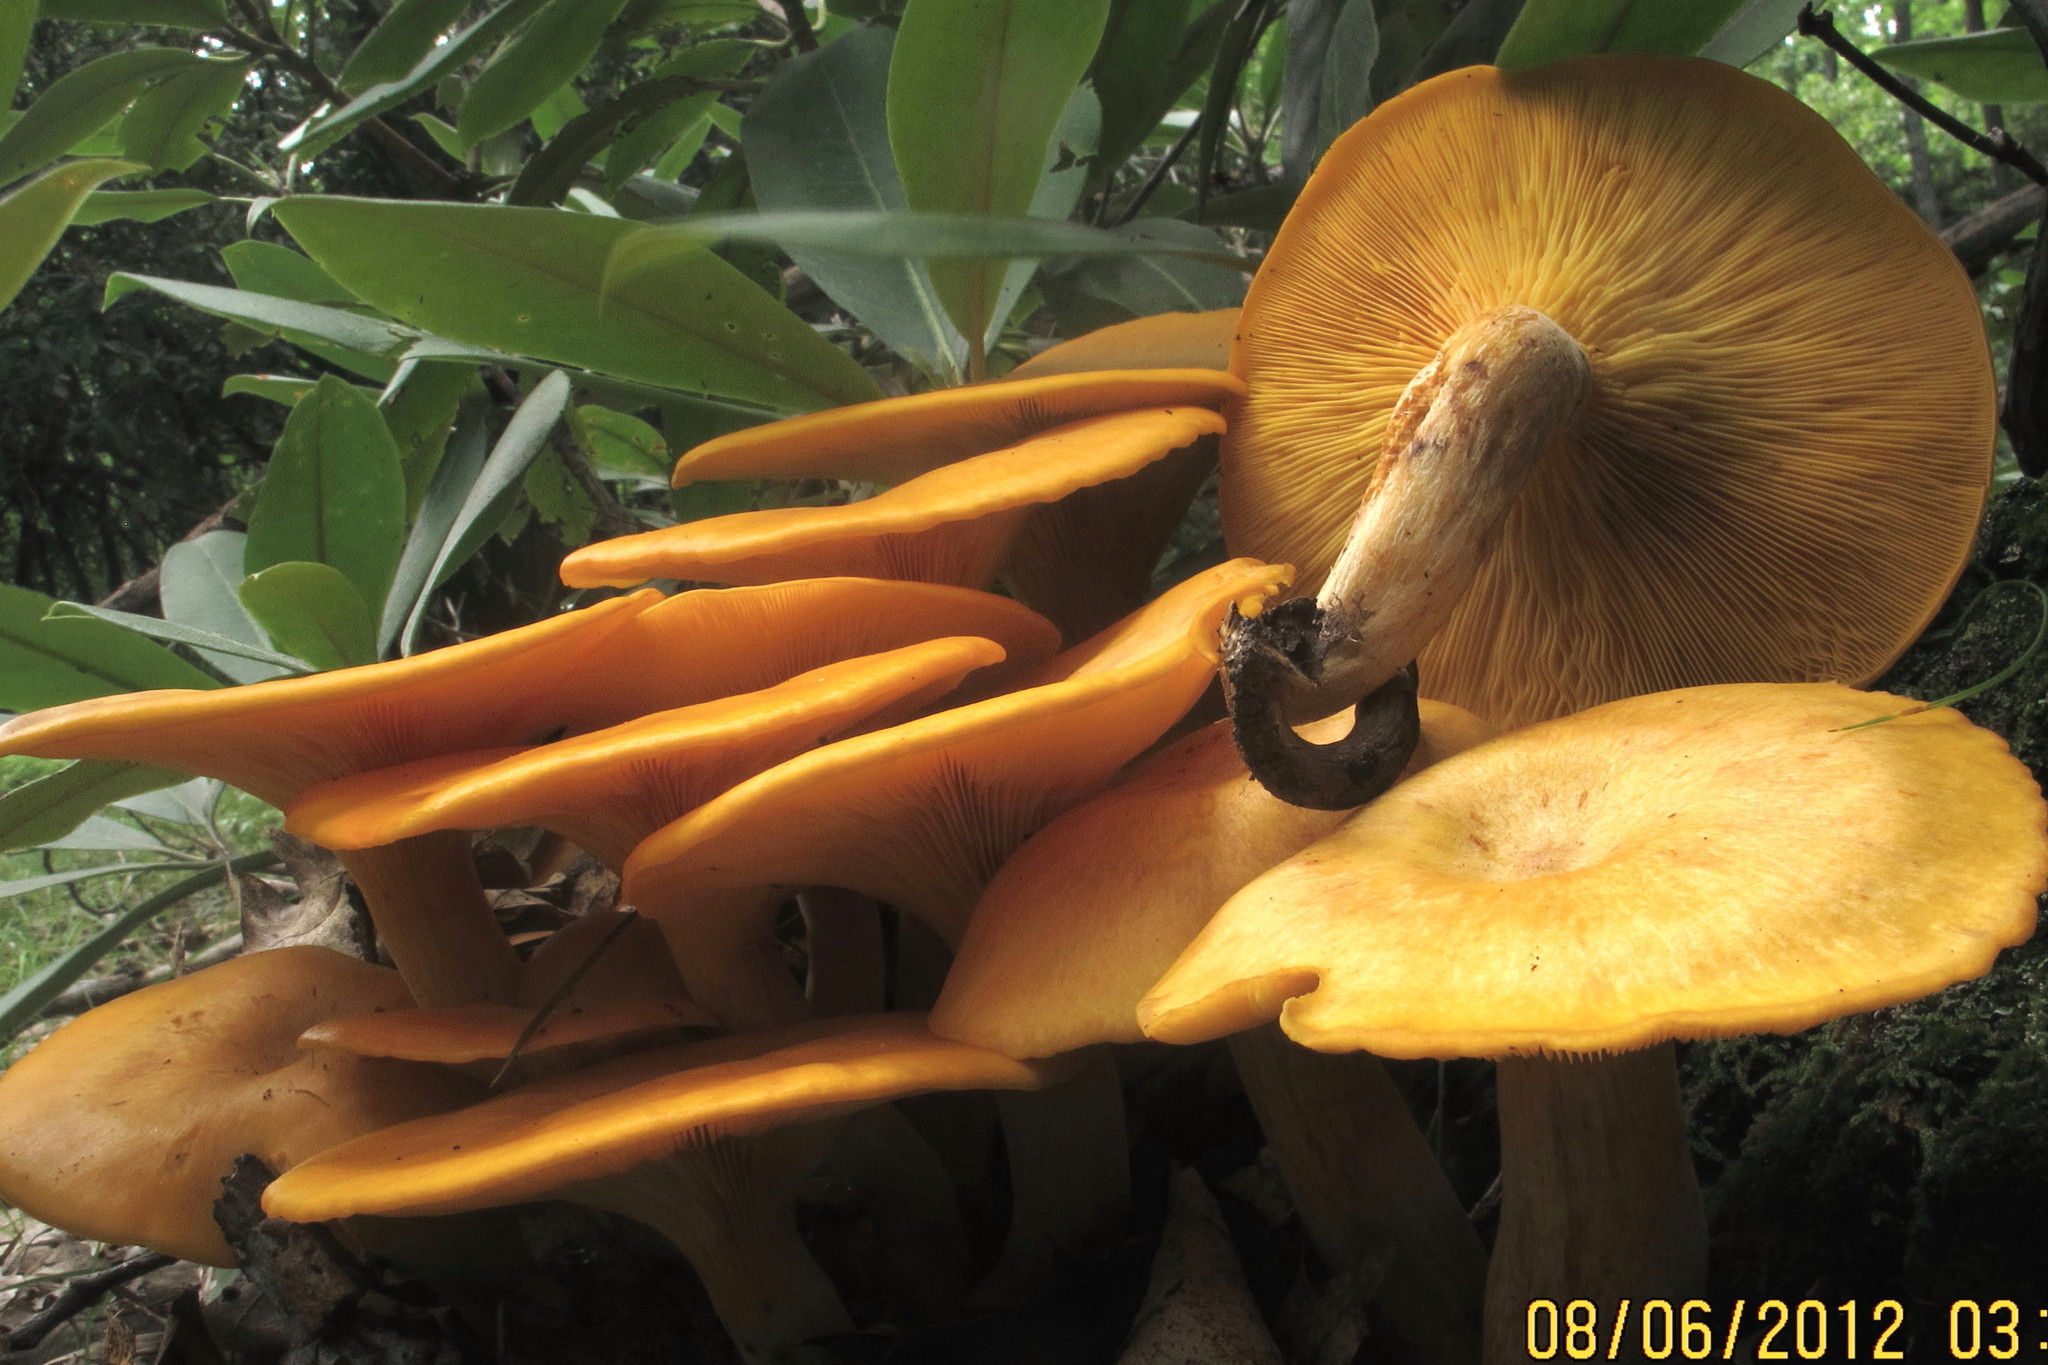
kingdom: Fungi
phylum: Basidiomycota
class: Agaricomycetes
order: Agaricales
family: Omphalotaceae
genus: Omphalotus
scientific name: Omphalotus illudens
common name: Jack o lantern
